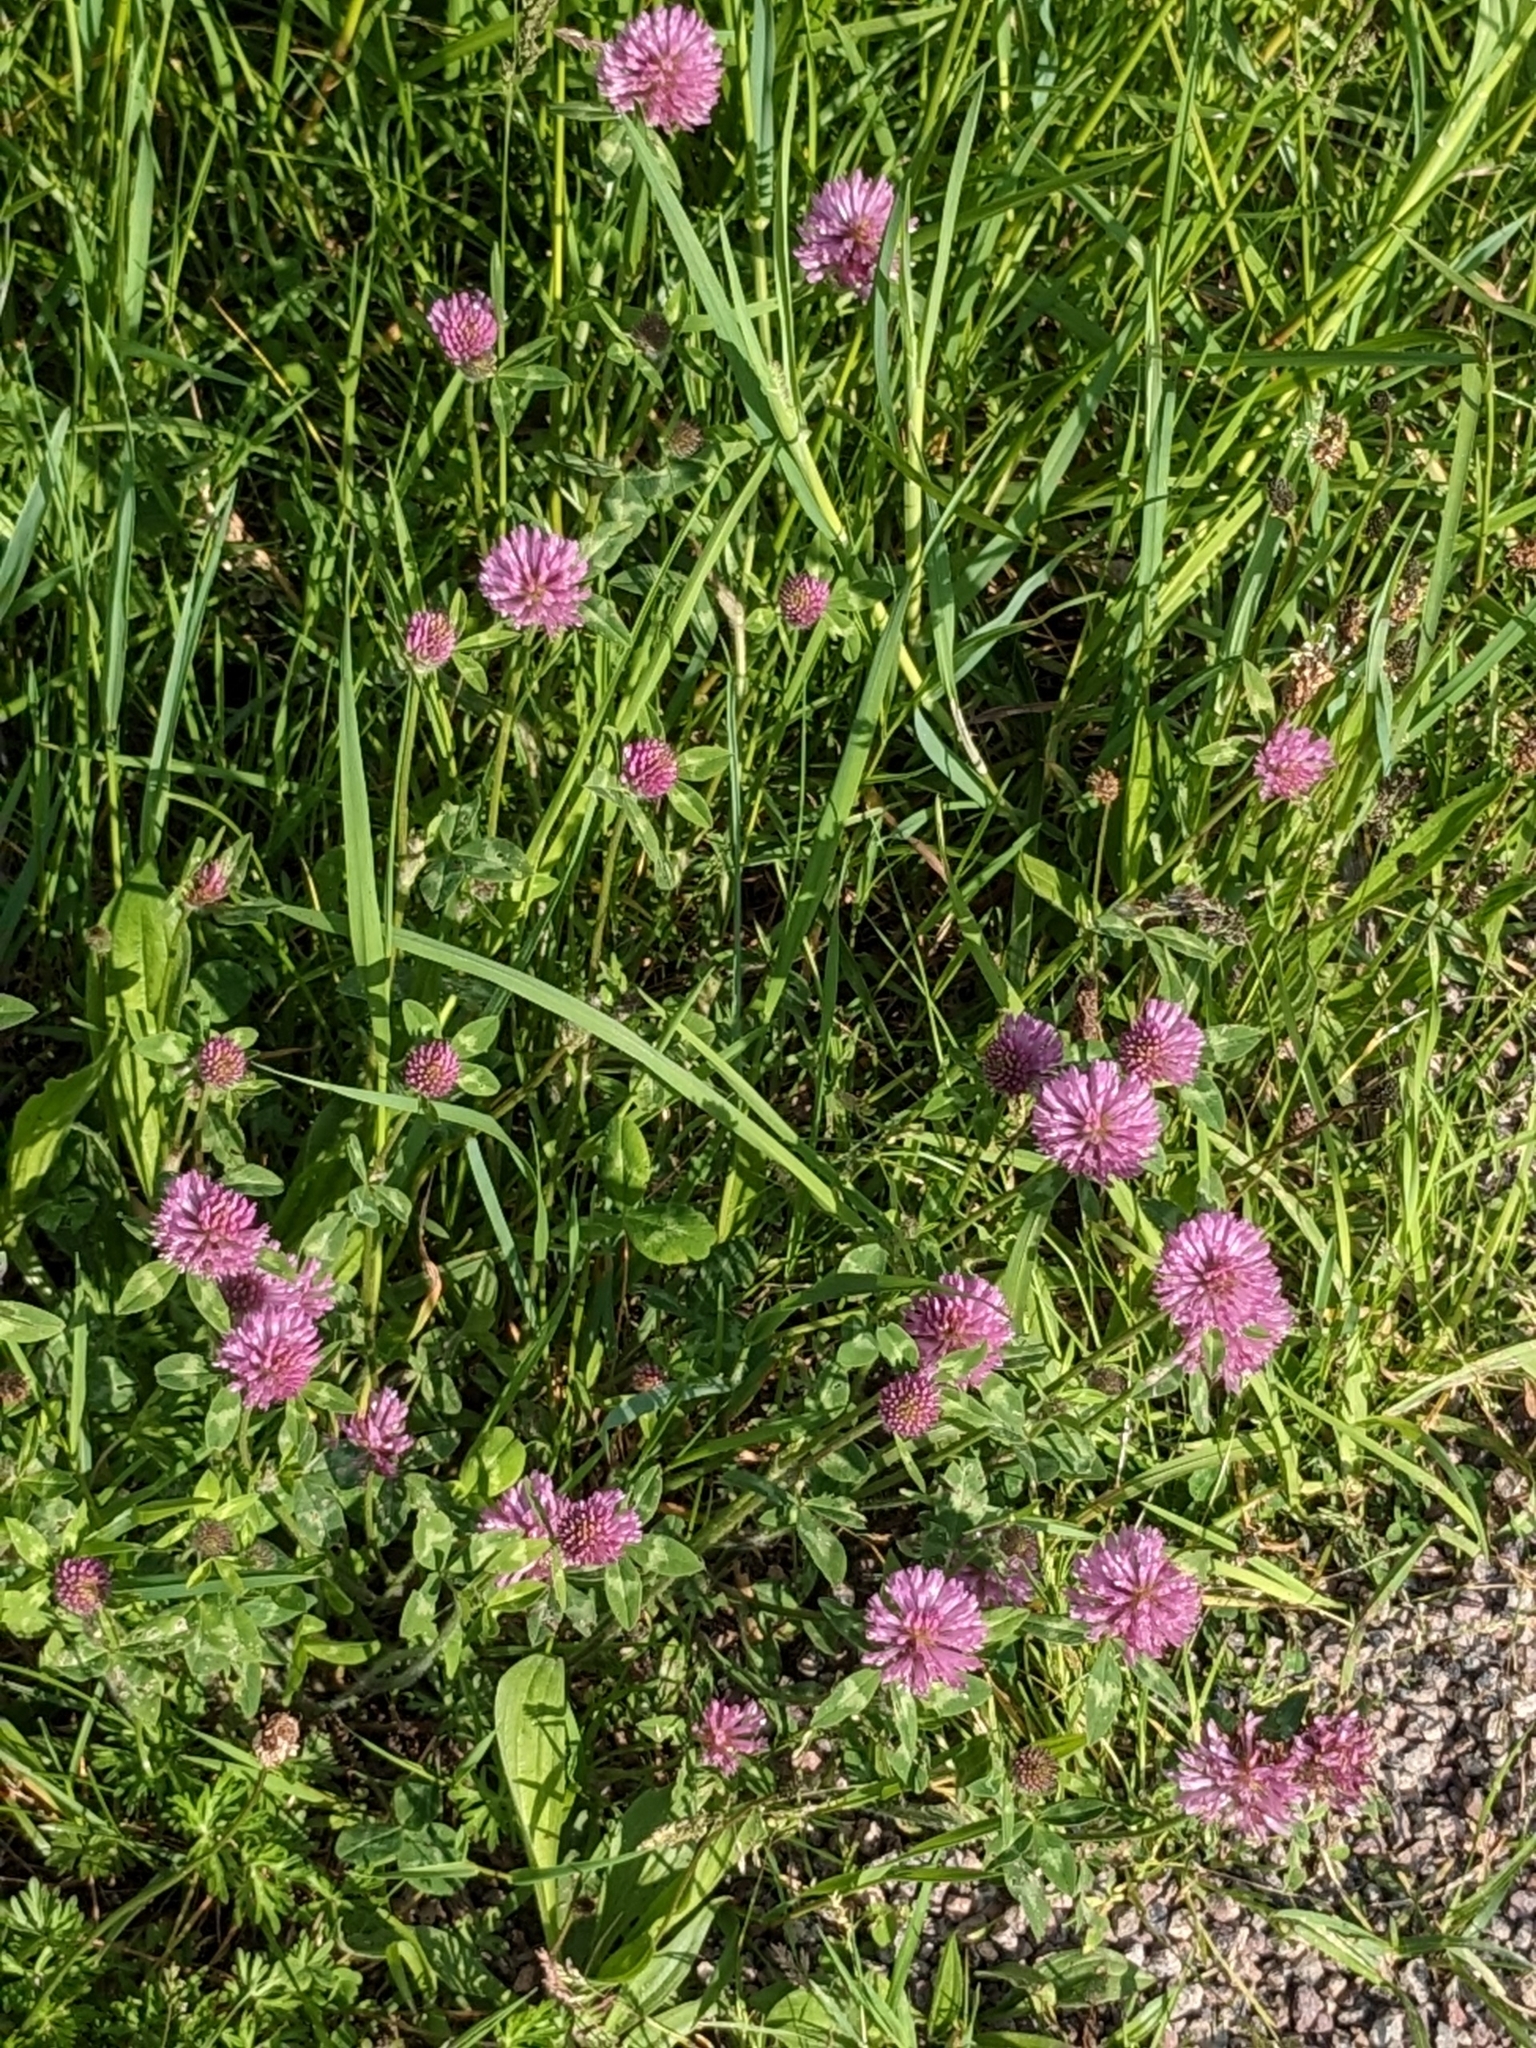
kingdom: Plantae
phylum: Tracheophyta
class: Magnoliopsida
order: Fabales
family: Fabaceae
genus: Trifolium
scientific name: Trifolium pratense
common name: Red clover
